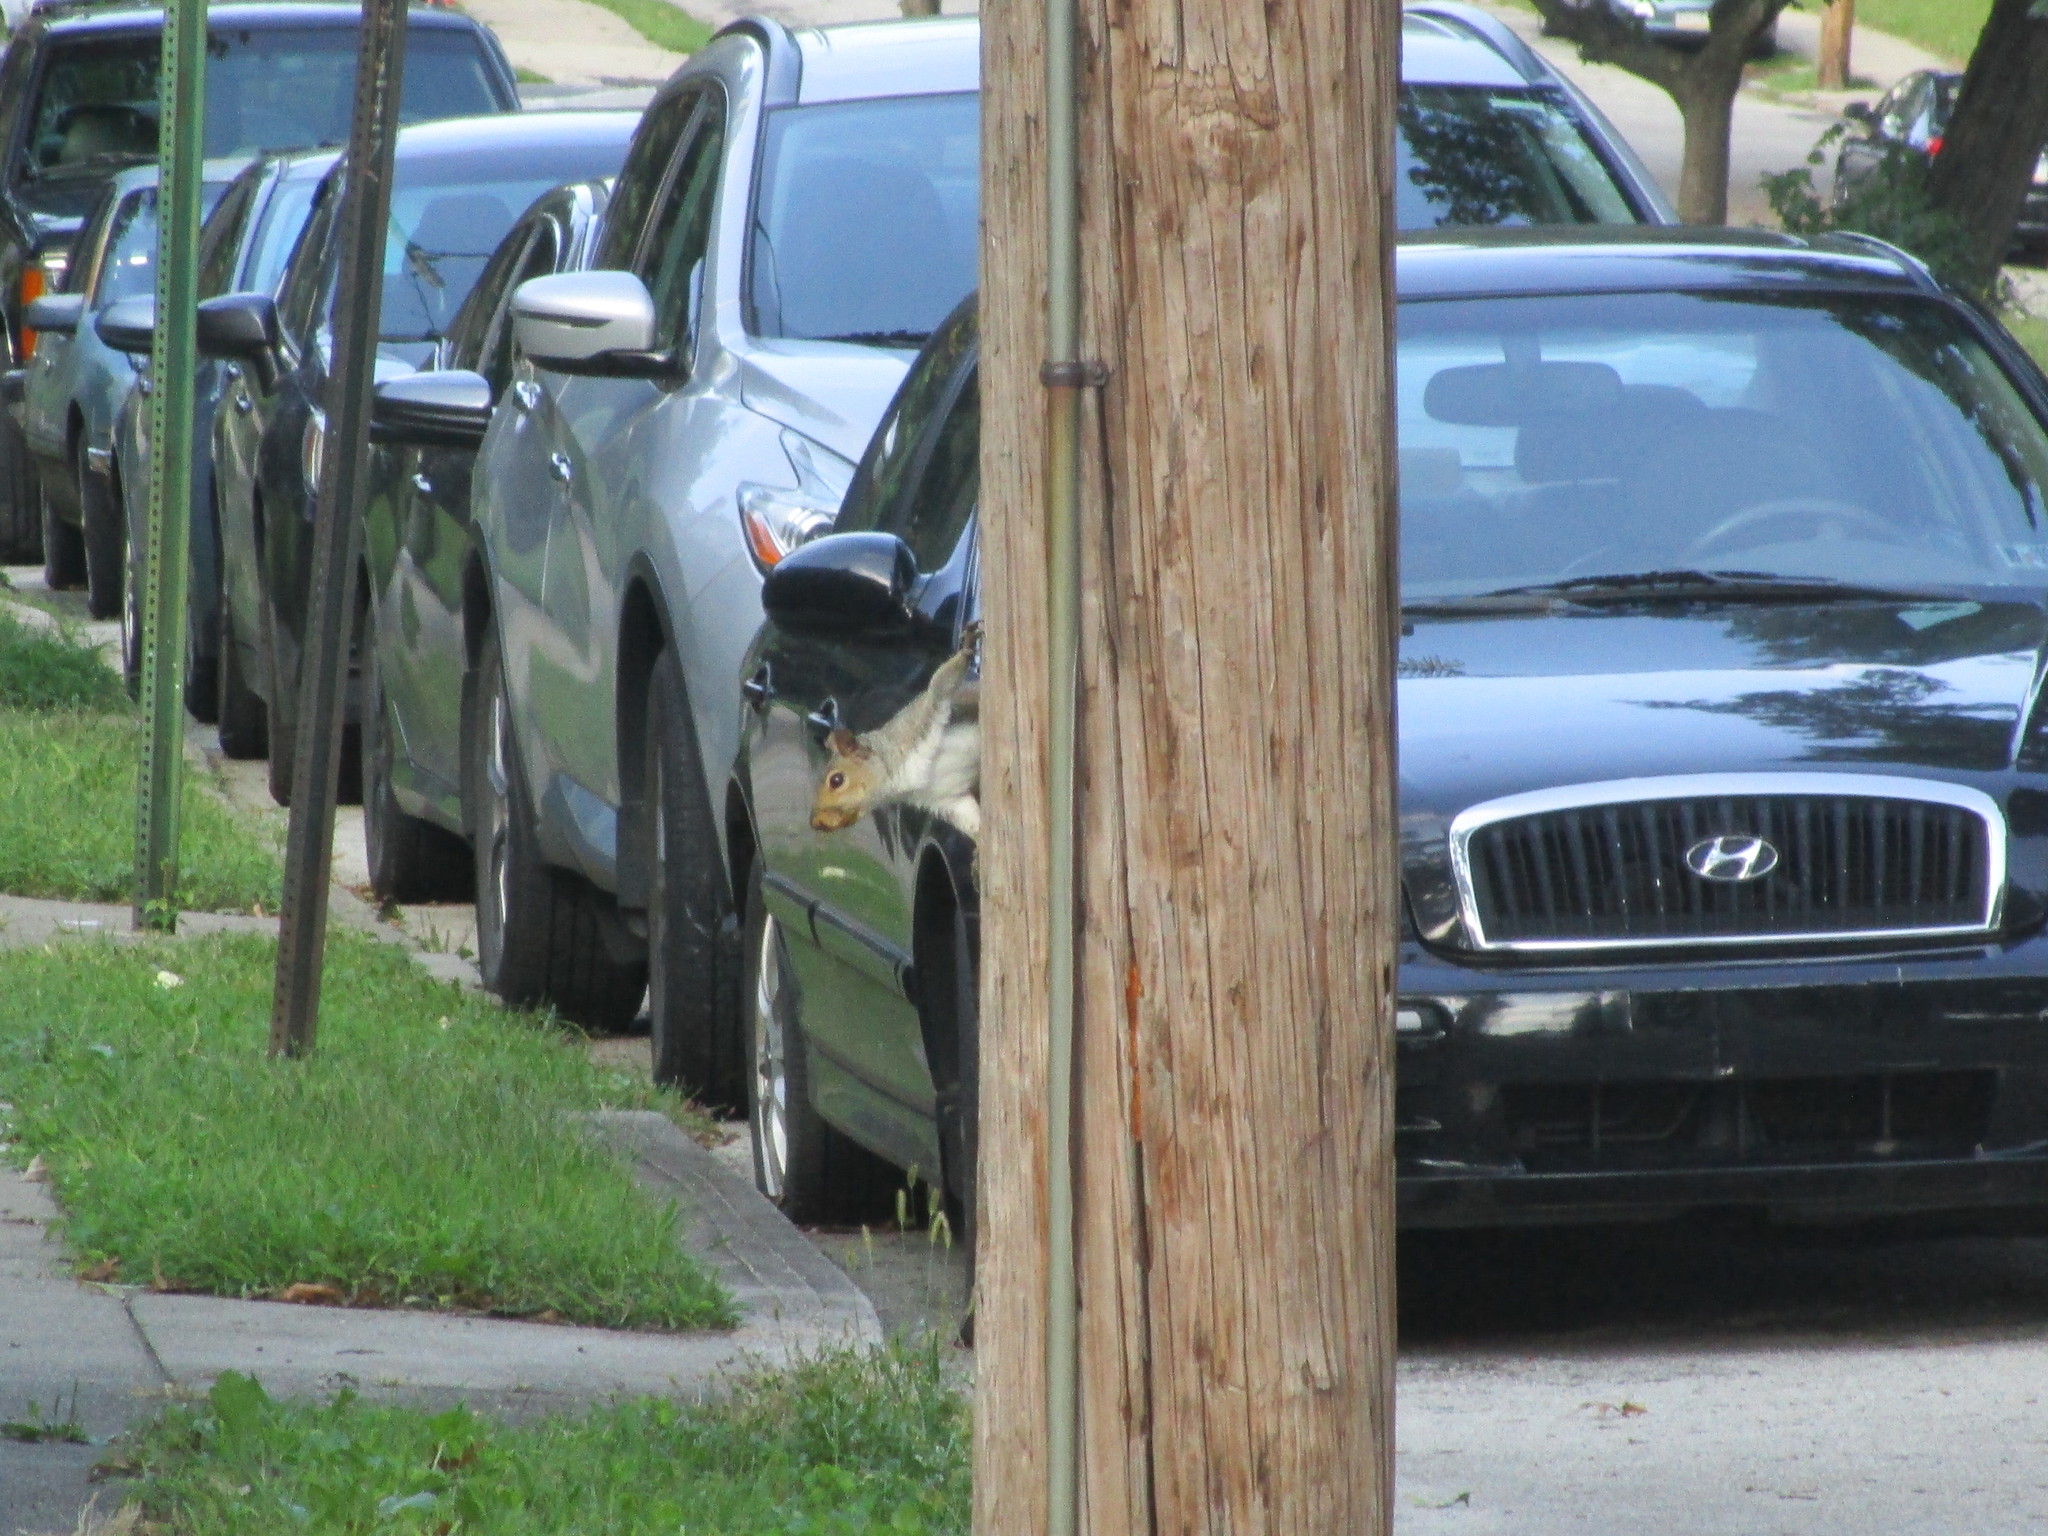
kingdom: Animalia
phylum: Chordata
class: Mammalia
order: Rodentia
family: Sciuridae
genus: Sciurus
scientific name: Sciurus carolinensis
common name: Eastern gray squirrel
